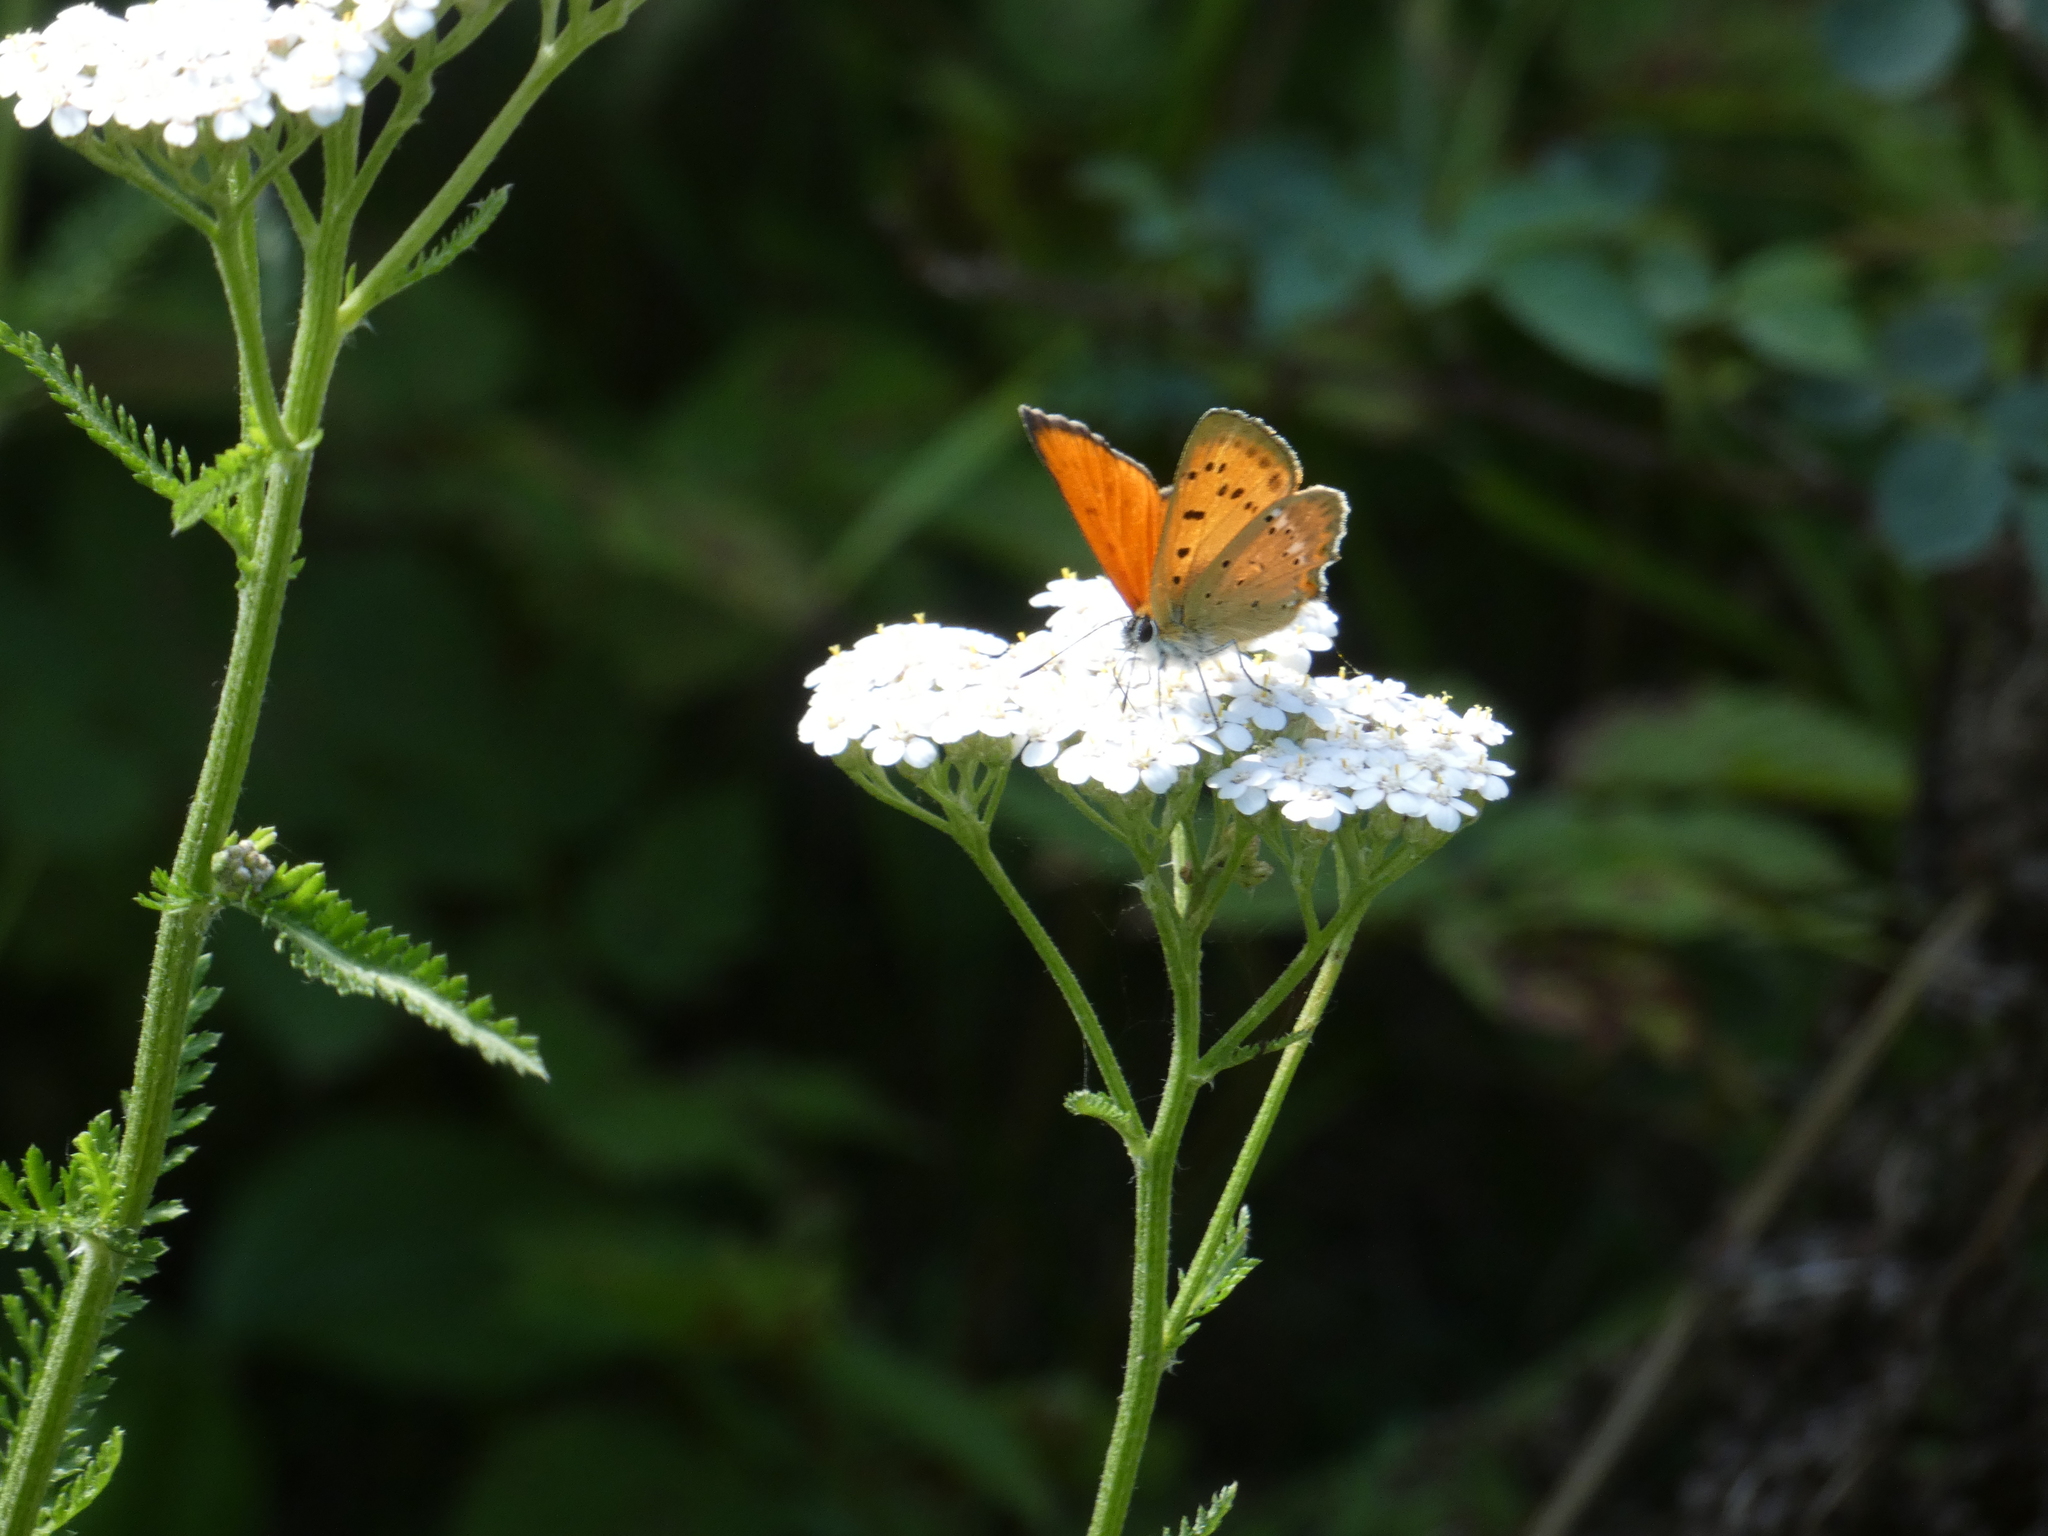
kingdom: Animalia
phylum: Arthropoda
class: Insecta
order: Lepidoptera
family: Lycaenidae
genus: Lycaena
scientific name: Lycaena virgaureae
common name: Scarce copper
